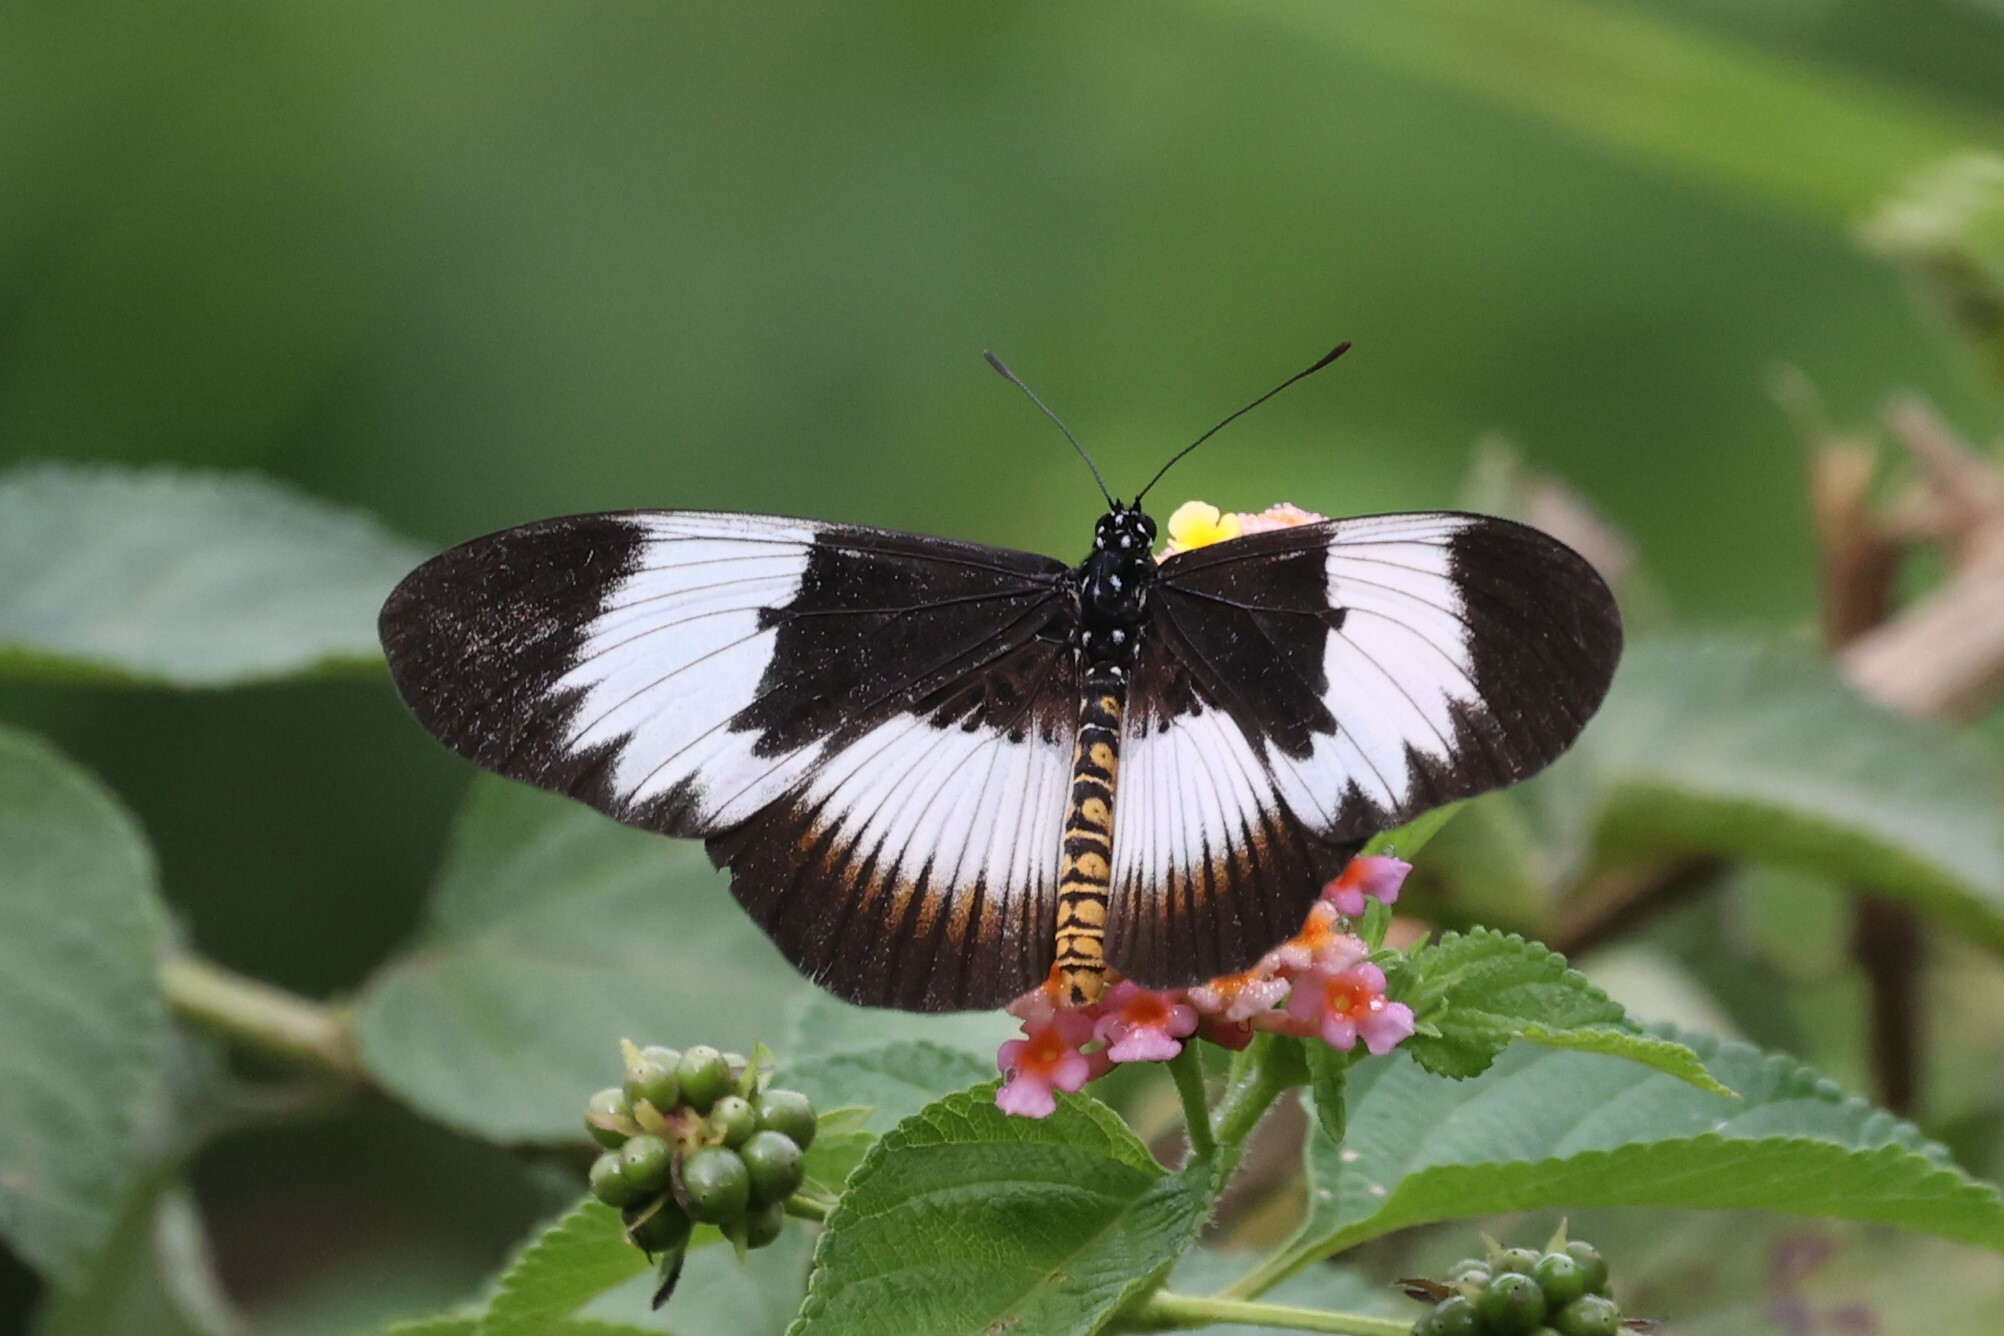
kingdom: Animalia
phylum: Arthropoda
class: Insecta
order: Lepidoptera
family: Nymphalidae
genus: Acraea
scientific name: Acraea
